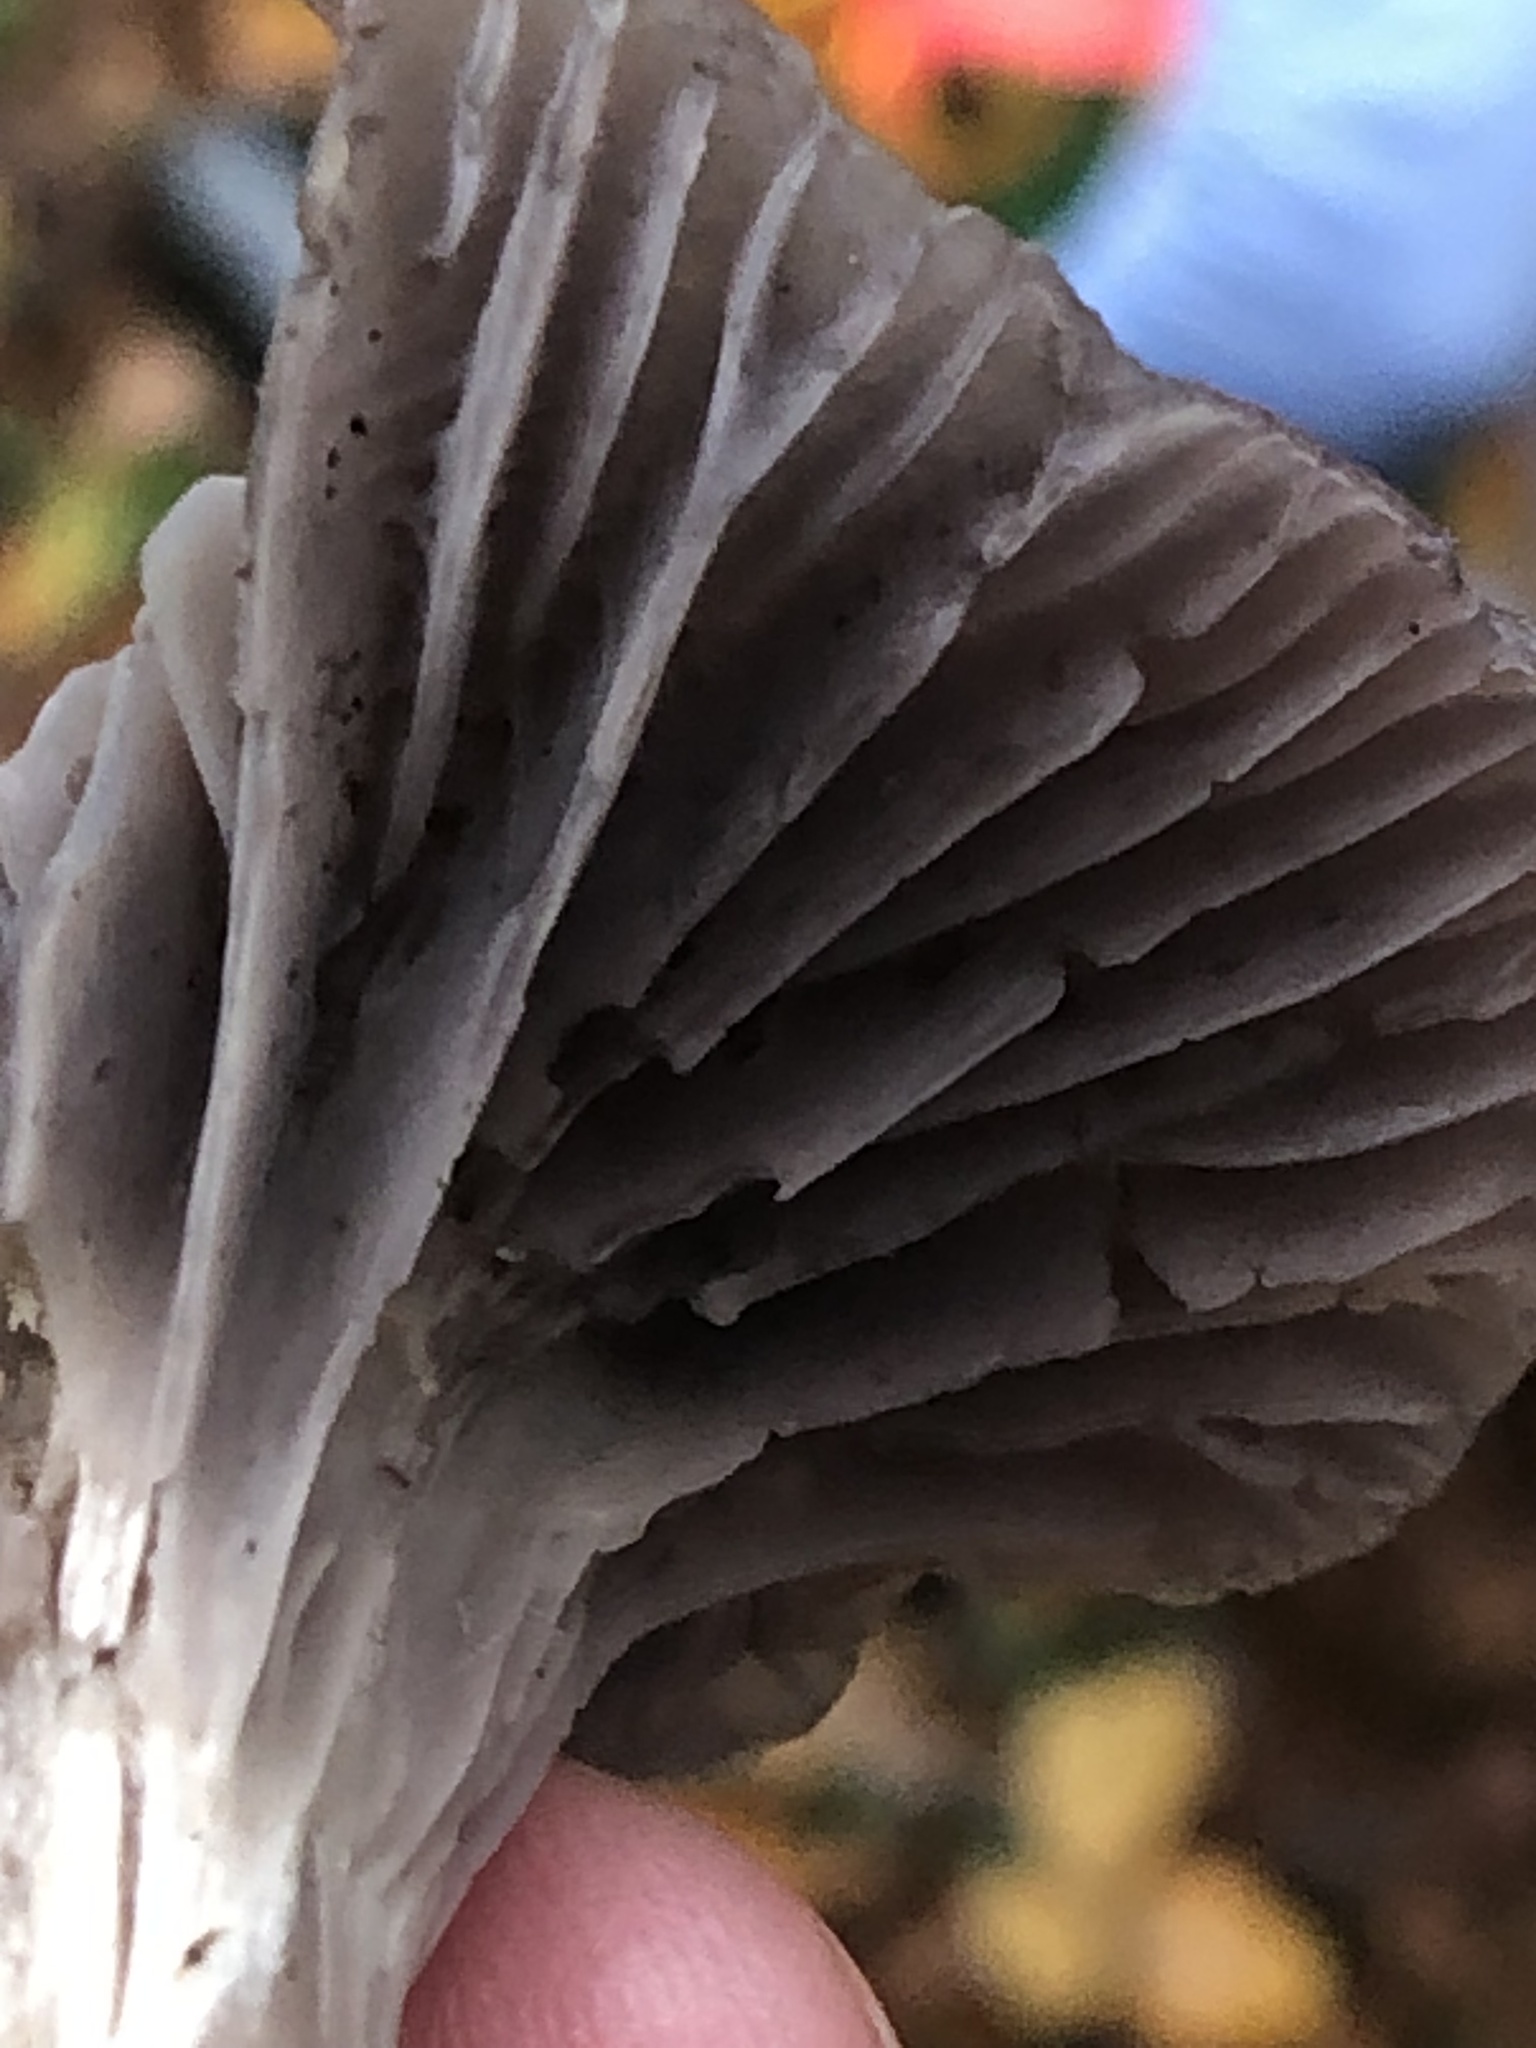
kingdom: Fungi
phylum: Basidiomycota
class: Agaricomycetes
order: Agaricales
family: Hygrophoraceae
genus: Cuphophyllus
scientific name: Cuphophyllus lacmus
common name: Grey waxcap
